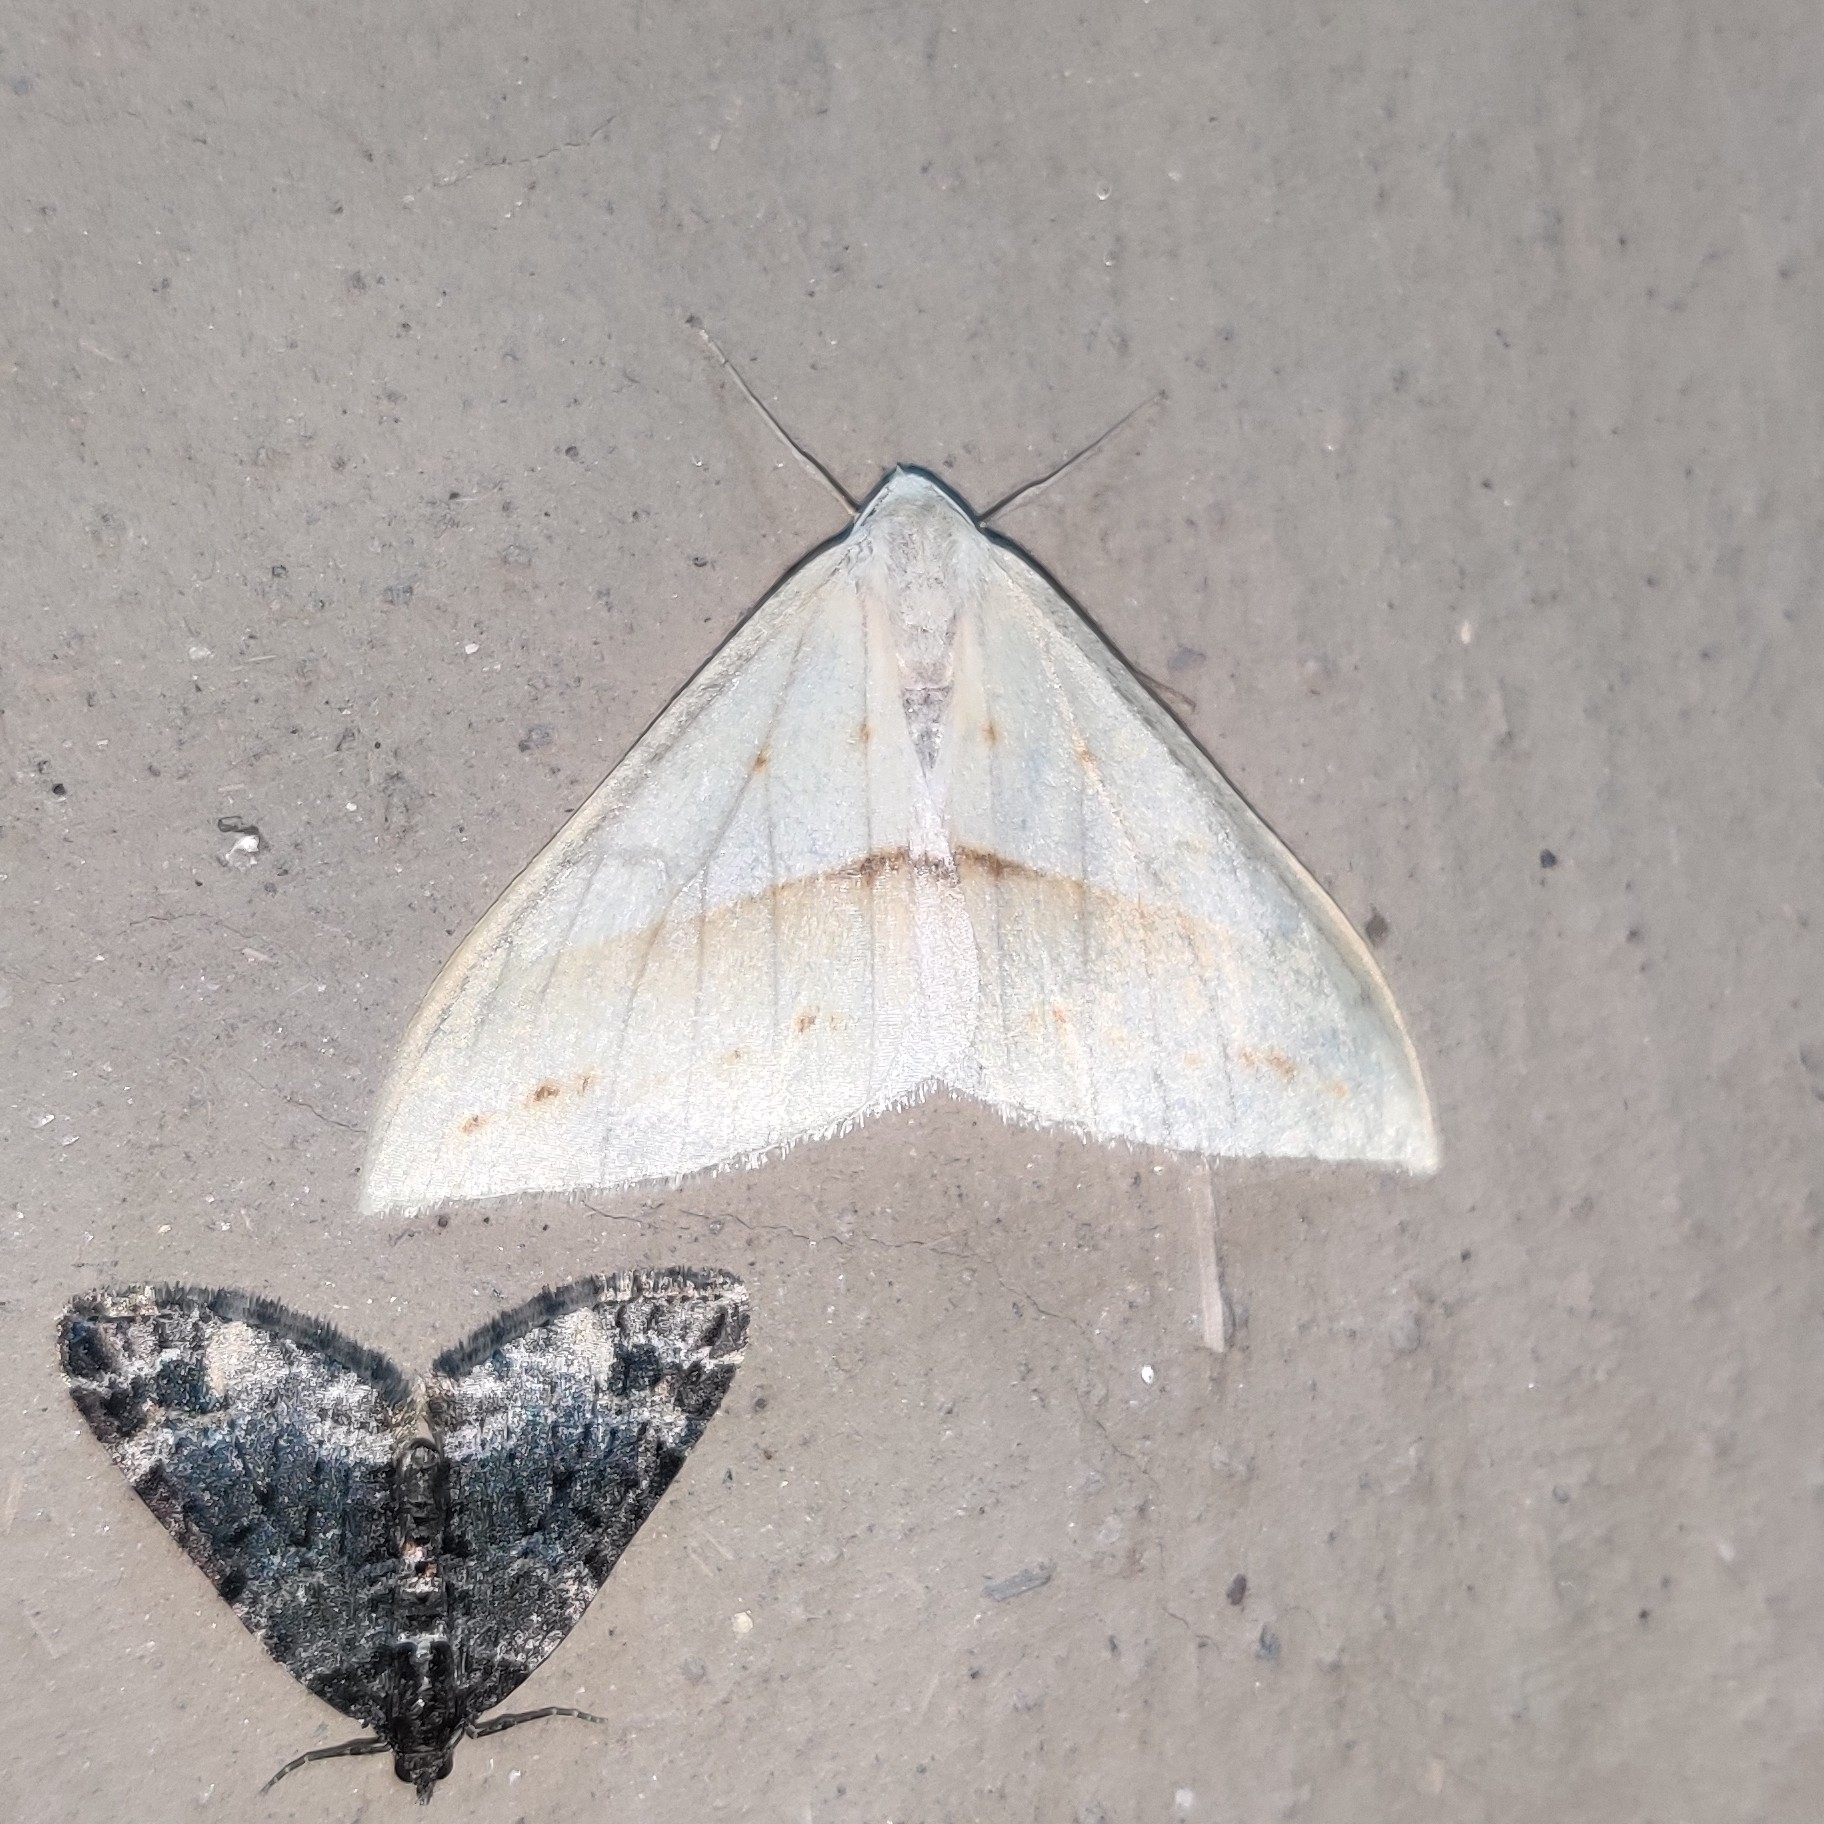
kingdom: Animalia
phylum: Arthropoda
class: Insecta
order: Lepidoptera
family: Geometridae
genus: Loxaspilates
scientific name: Loxaspilates obliquaria
